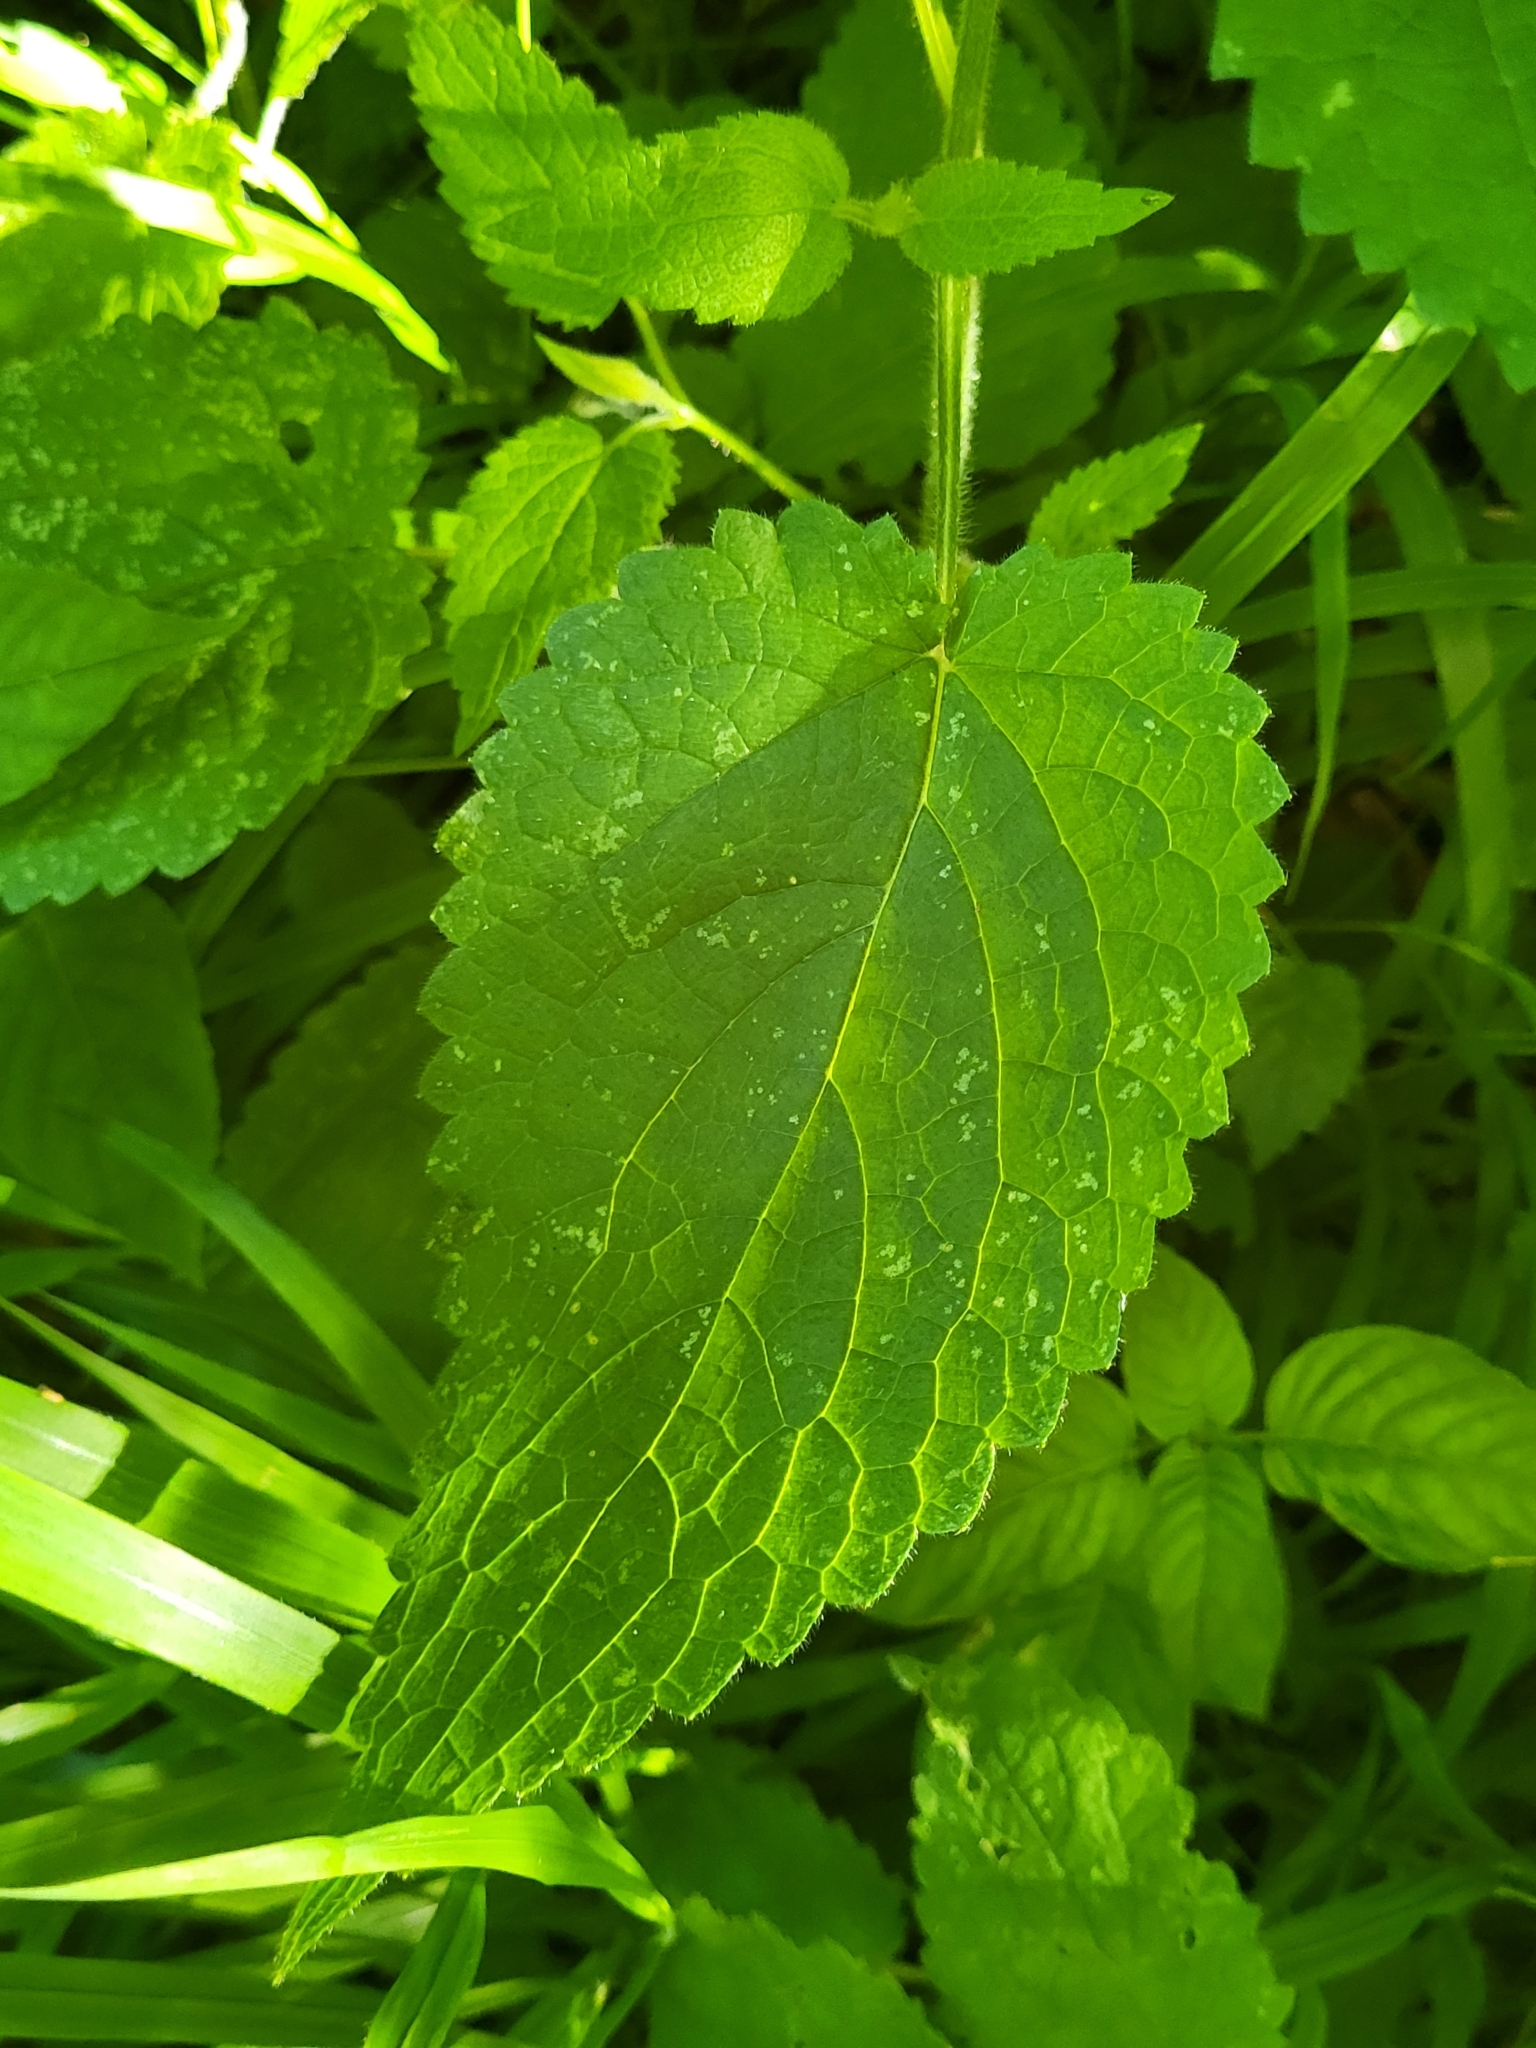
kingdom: Plantae
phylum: Tracheophyta
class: Magnoliopsida
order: Lamiales
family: Lamiaceae
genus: Stachys
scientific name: Stachys sylvatica
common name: Hedge woundwort
